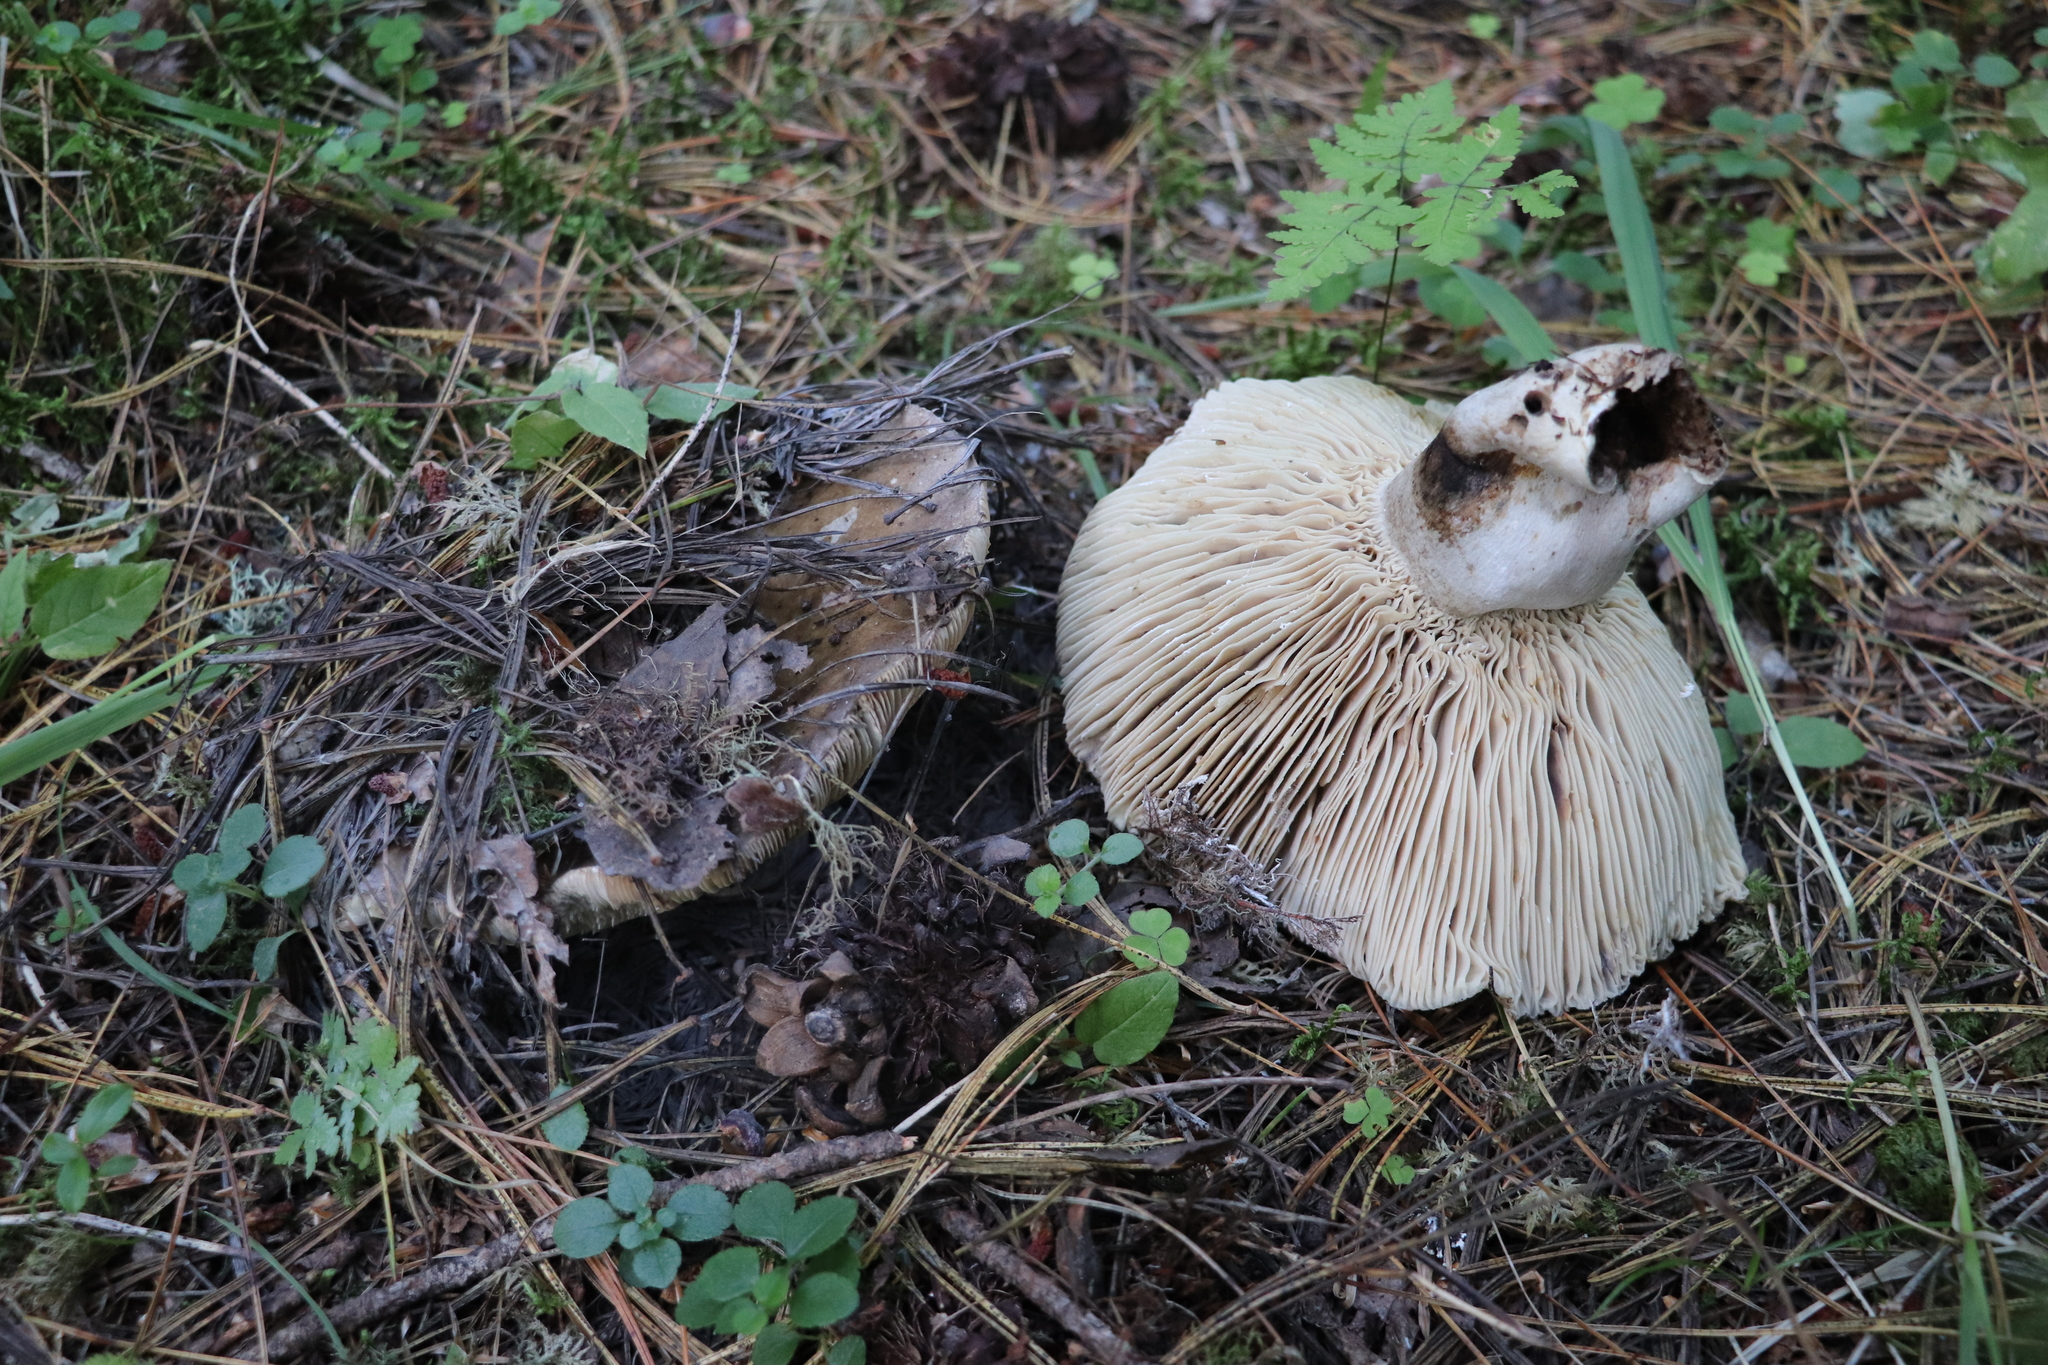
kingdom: Fungi
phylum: Basidiomycota
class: Agaricomycetes
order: Russulales
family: Russulaceae
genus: Russula
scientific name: Russula adusta
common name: Winecork brittlegill
